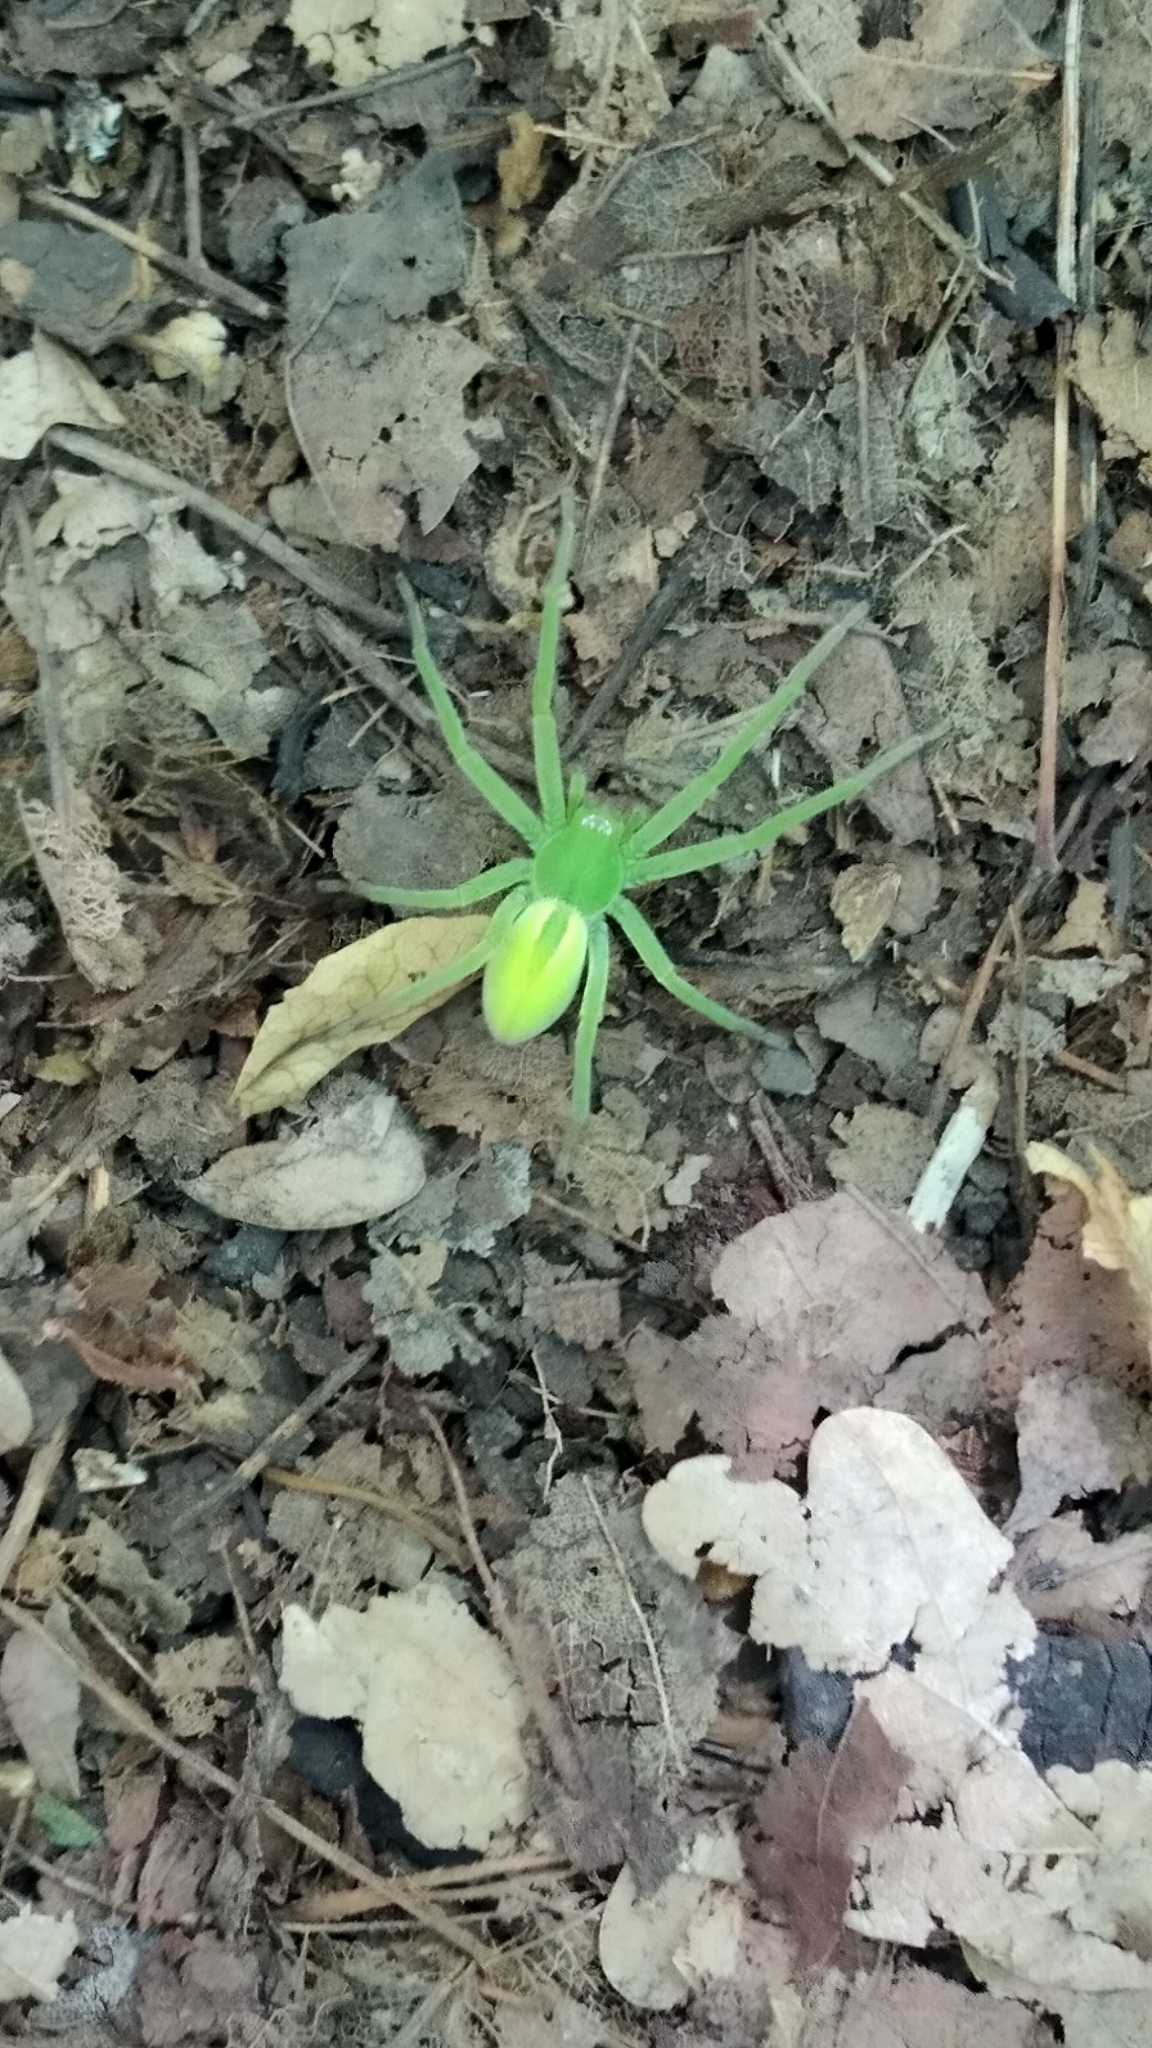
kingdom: Animalia
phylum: Arthropoda
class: Arachnida
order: Araneae
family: Sparassidae
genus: Micrommata
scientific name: Micrommata virescens
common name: Green spider
